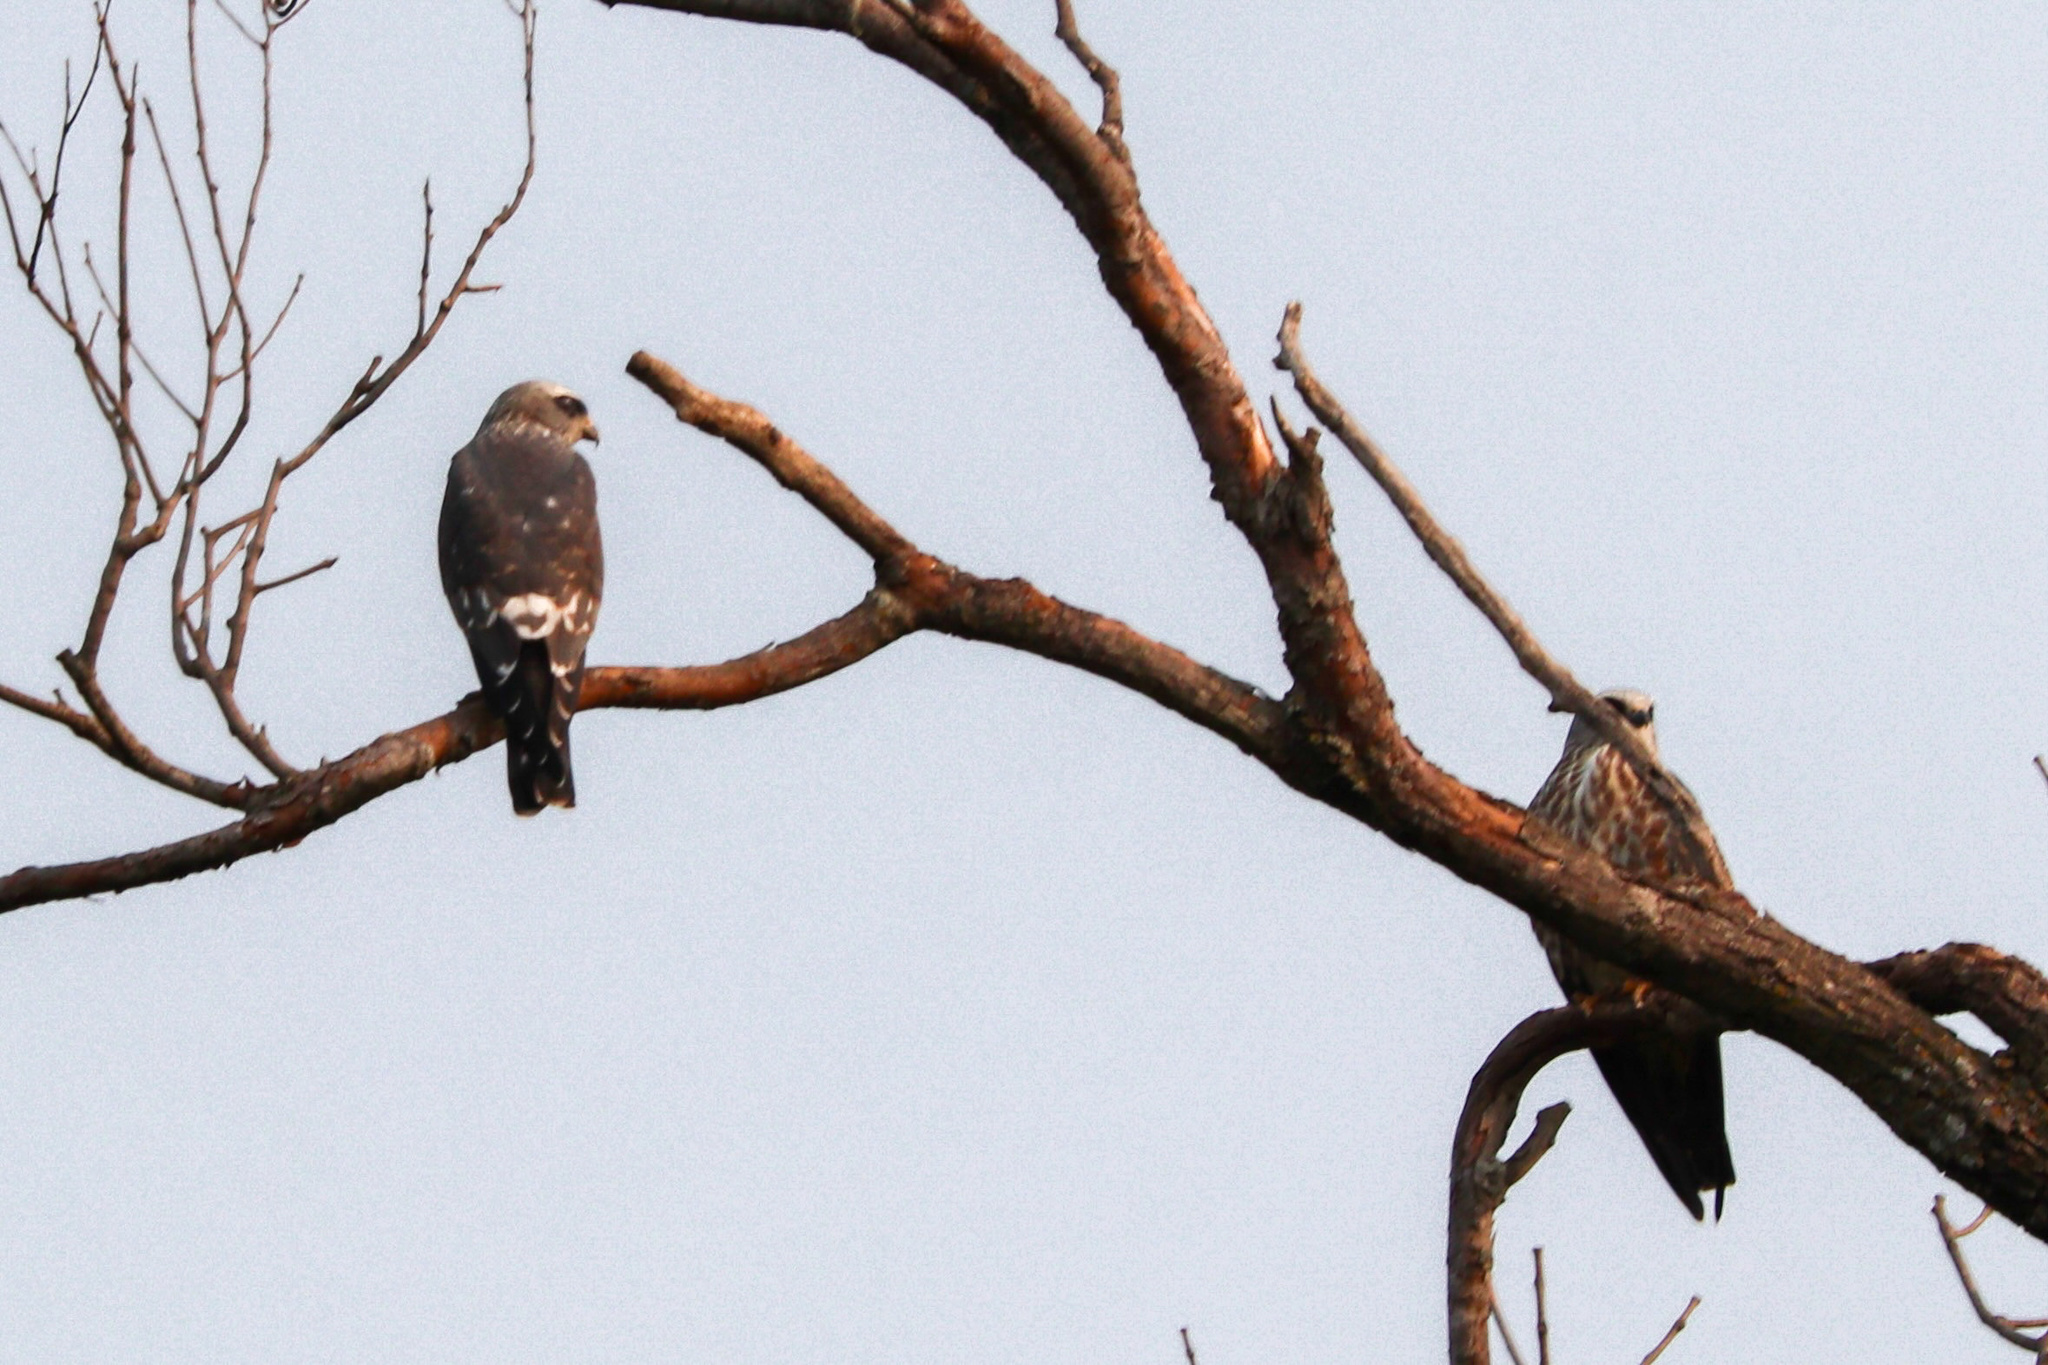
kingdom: Animalia
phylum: Chordata
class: Aves
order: Accipitriformes
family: Accipitridae
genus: Ictinia
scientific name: Ictinia mississippiensis
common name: Mississippi kite
